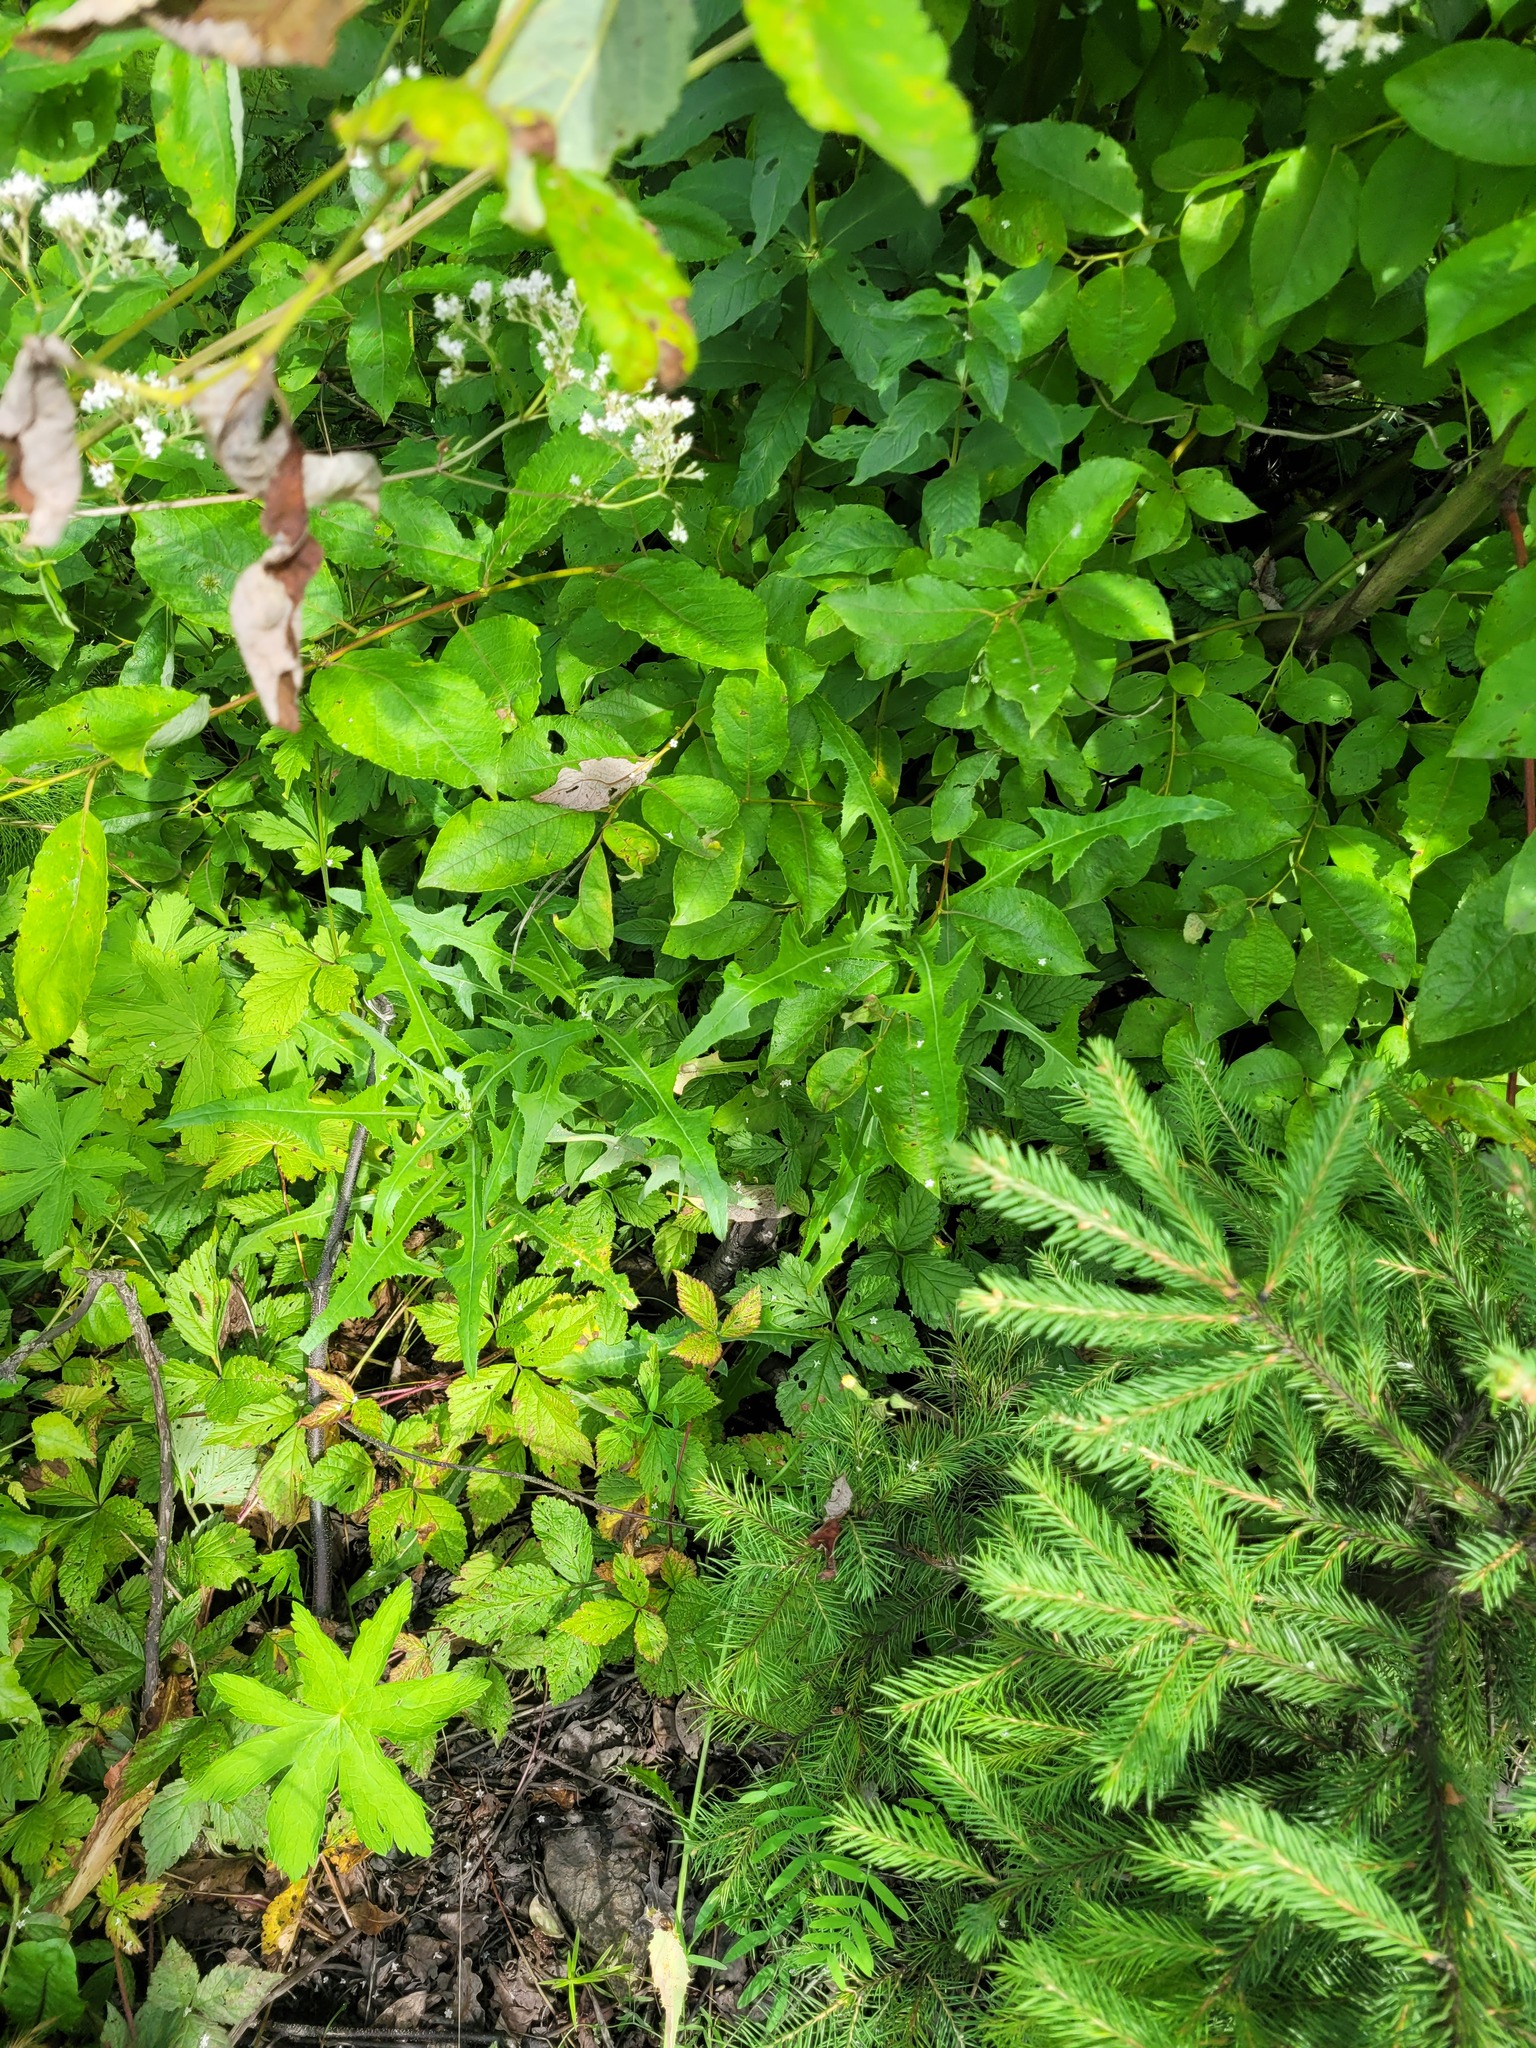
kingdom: Plantae
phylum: Tracheophyta
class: Magnoliopsida
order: Asterales
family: Asteraceae
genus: Sonchus
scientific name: Sonchus arvensis
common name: Perennial sow-thistle
